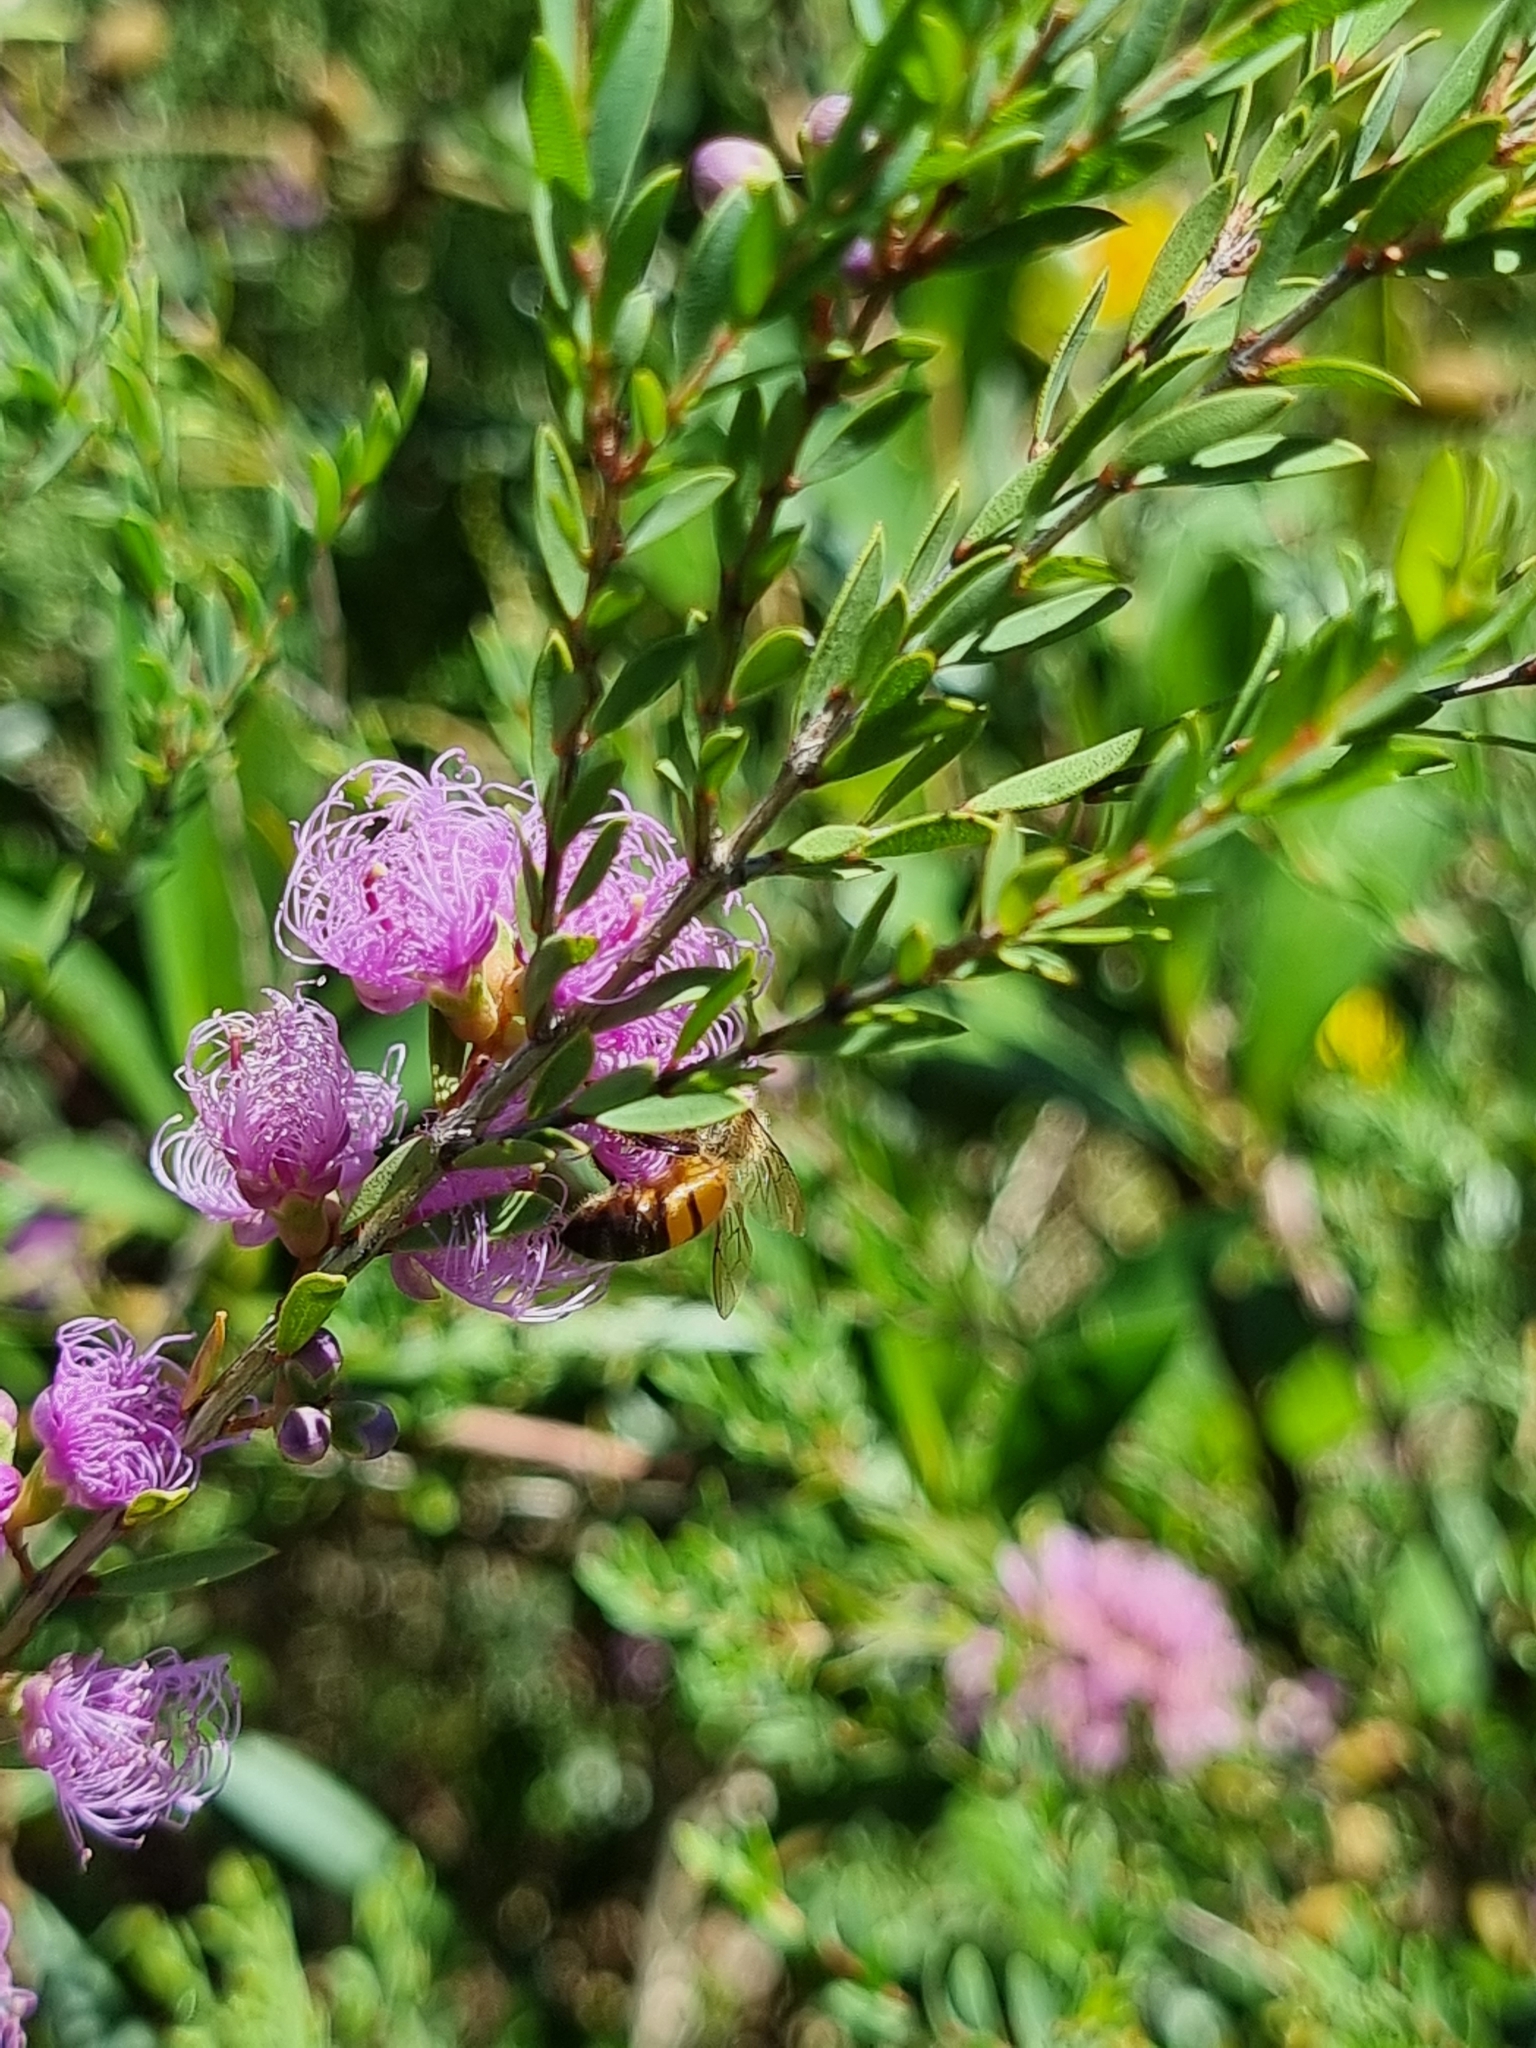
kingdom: Animalia
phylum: Arthropoda
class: Insecta
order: Hymenoptera
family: Apidae
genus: Apis
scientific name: Apis mellifera
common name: Honey bee
